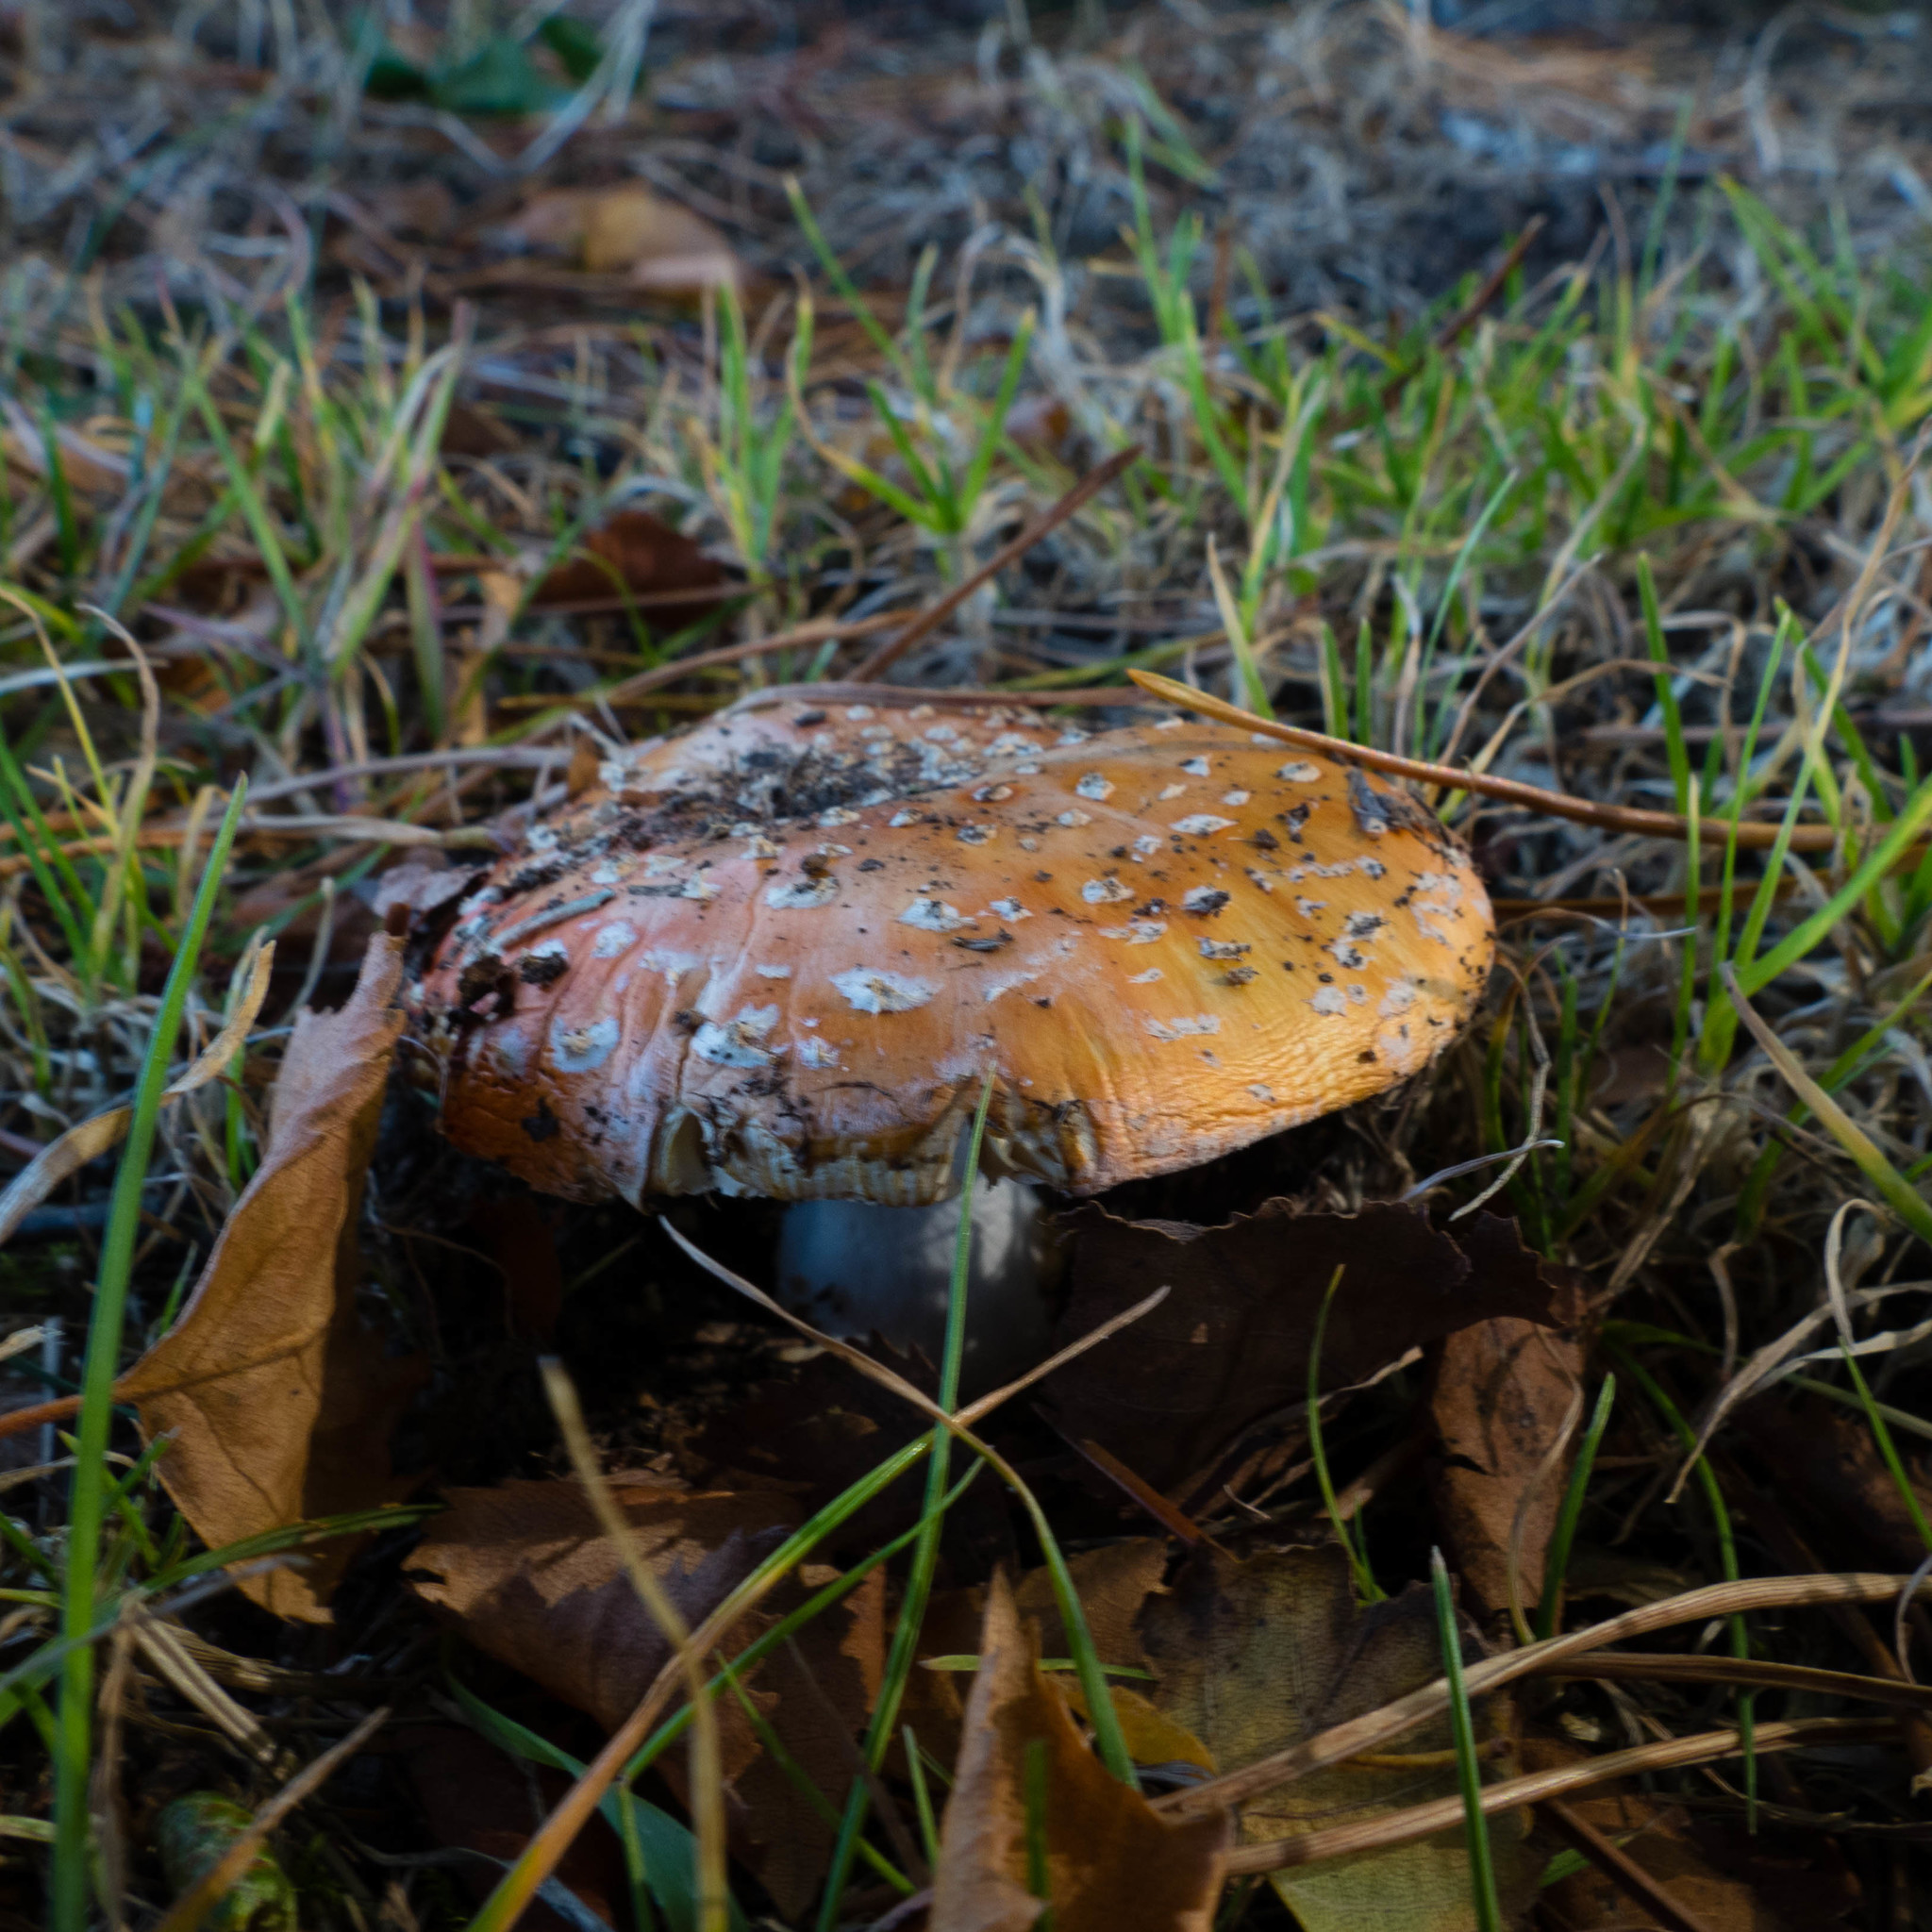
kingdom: Fungi
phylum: Basidiomycota
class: Agaricomycetes
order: Agaricales
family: Amanitaceae
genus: Amanita
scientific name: Amanita muscaria
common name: Fly agaric
